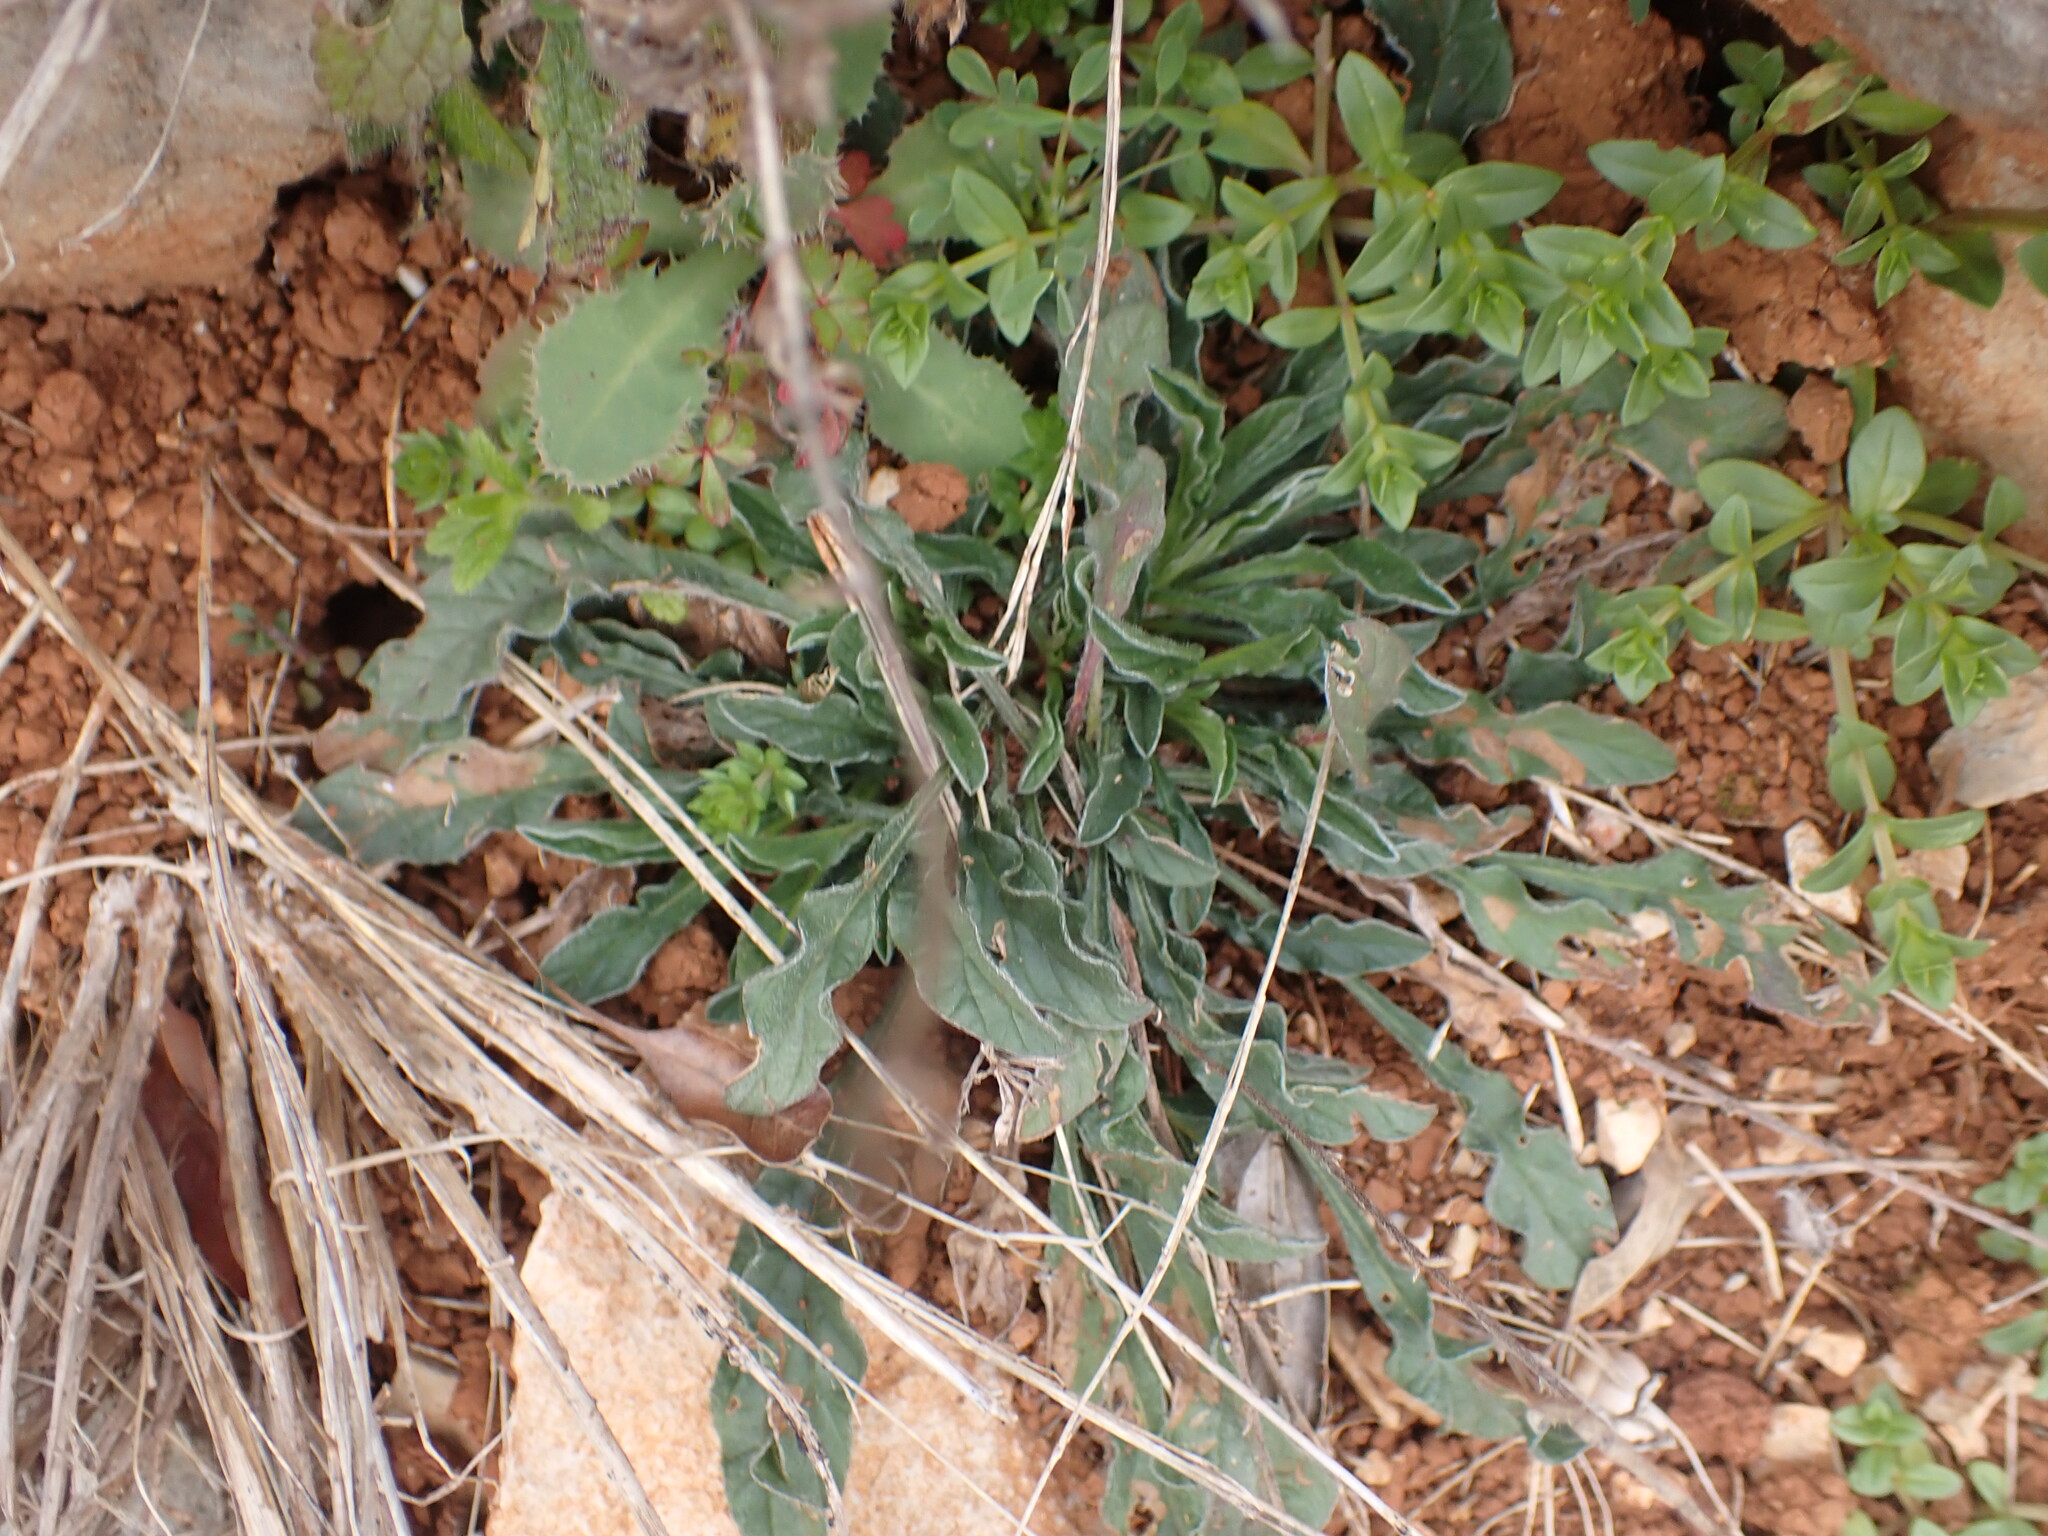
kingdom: Plantae
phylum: Tracheophyta
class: Magnoliopsida
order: Solanales
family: Convolvulaceae
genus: Convolvulus
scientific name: Convolvulus cantabrica
